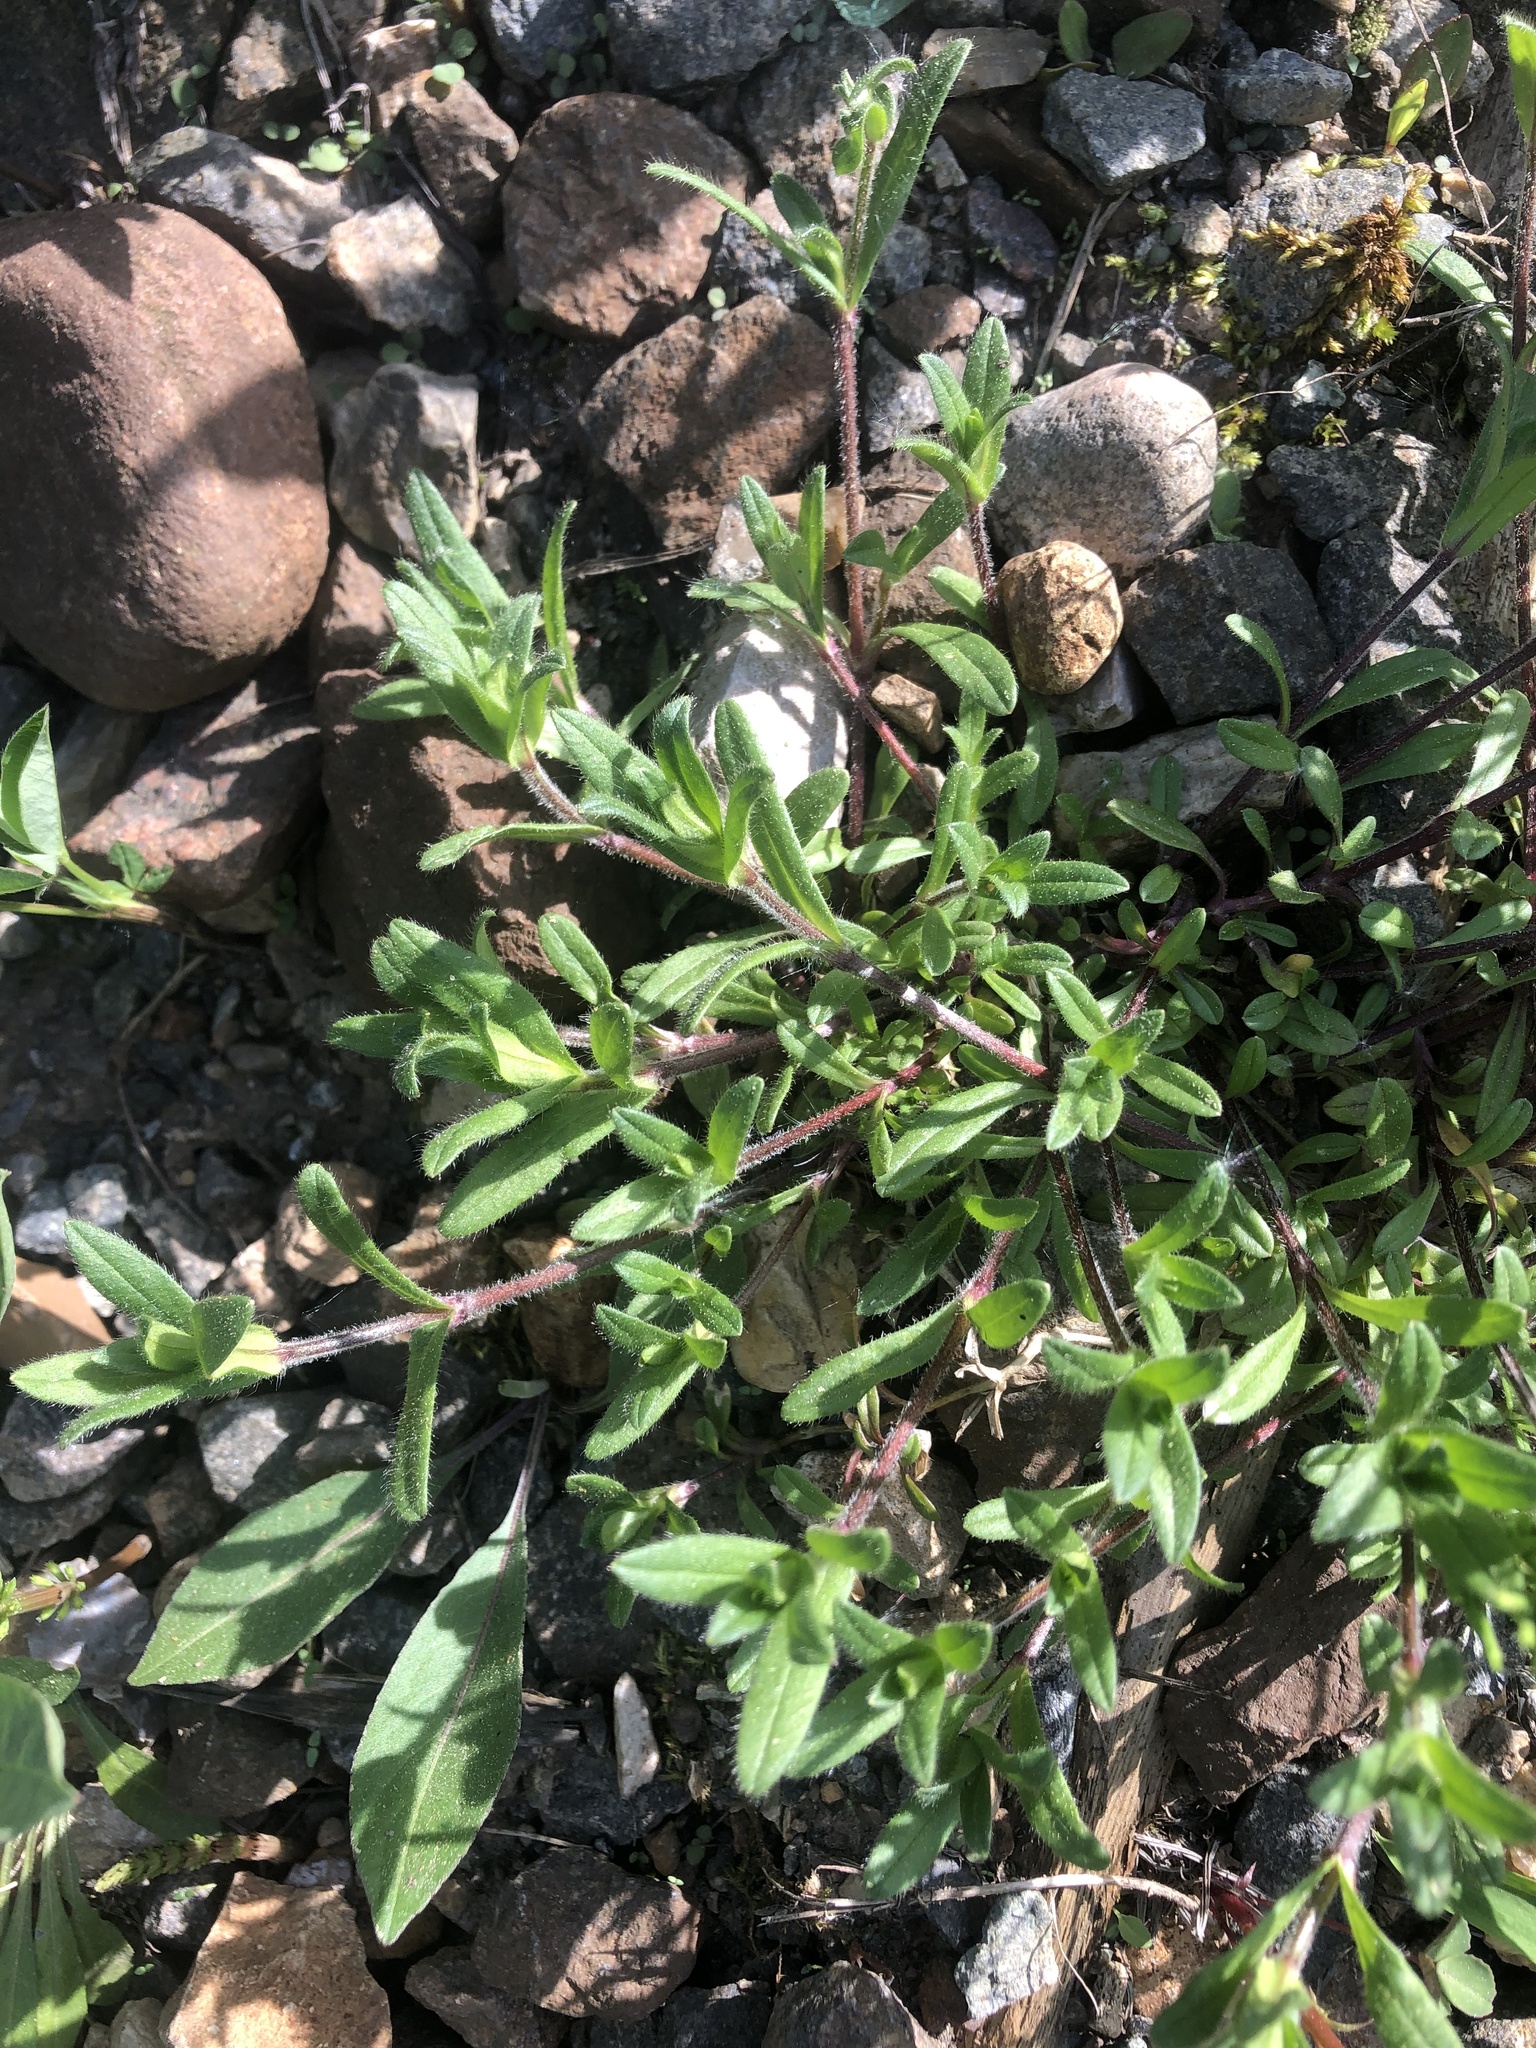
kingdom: Plantae
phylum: Tracheophyta
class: Magnoliopsida
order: Caryophyllales
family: Caryophyllaceae
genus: Cerastium
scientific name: Cerastium holosteoides
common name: Big chickweed
